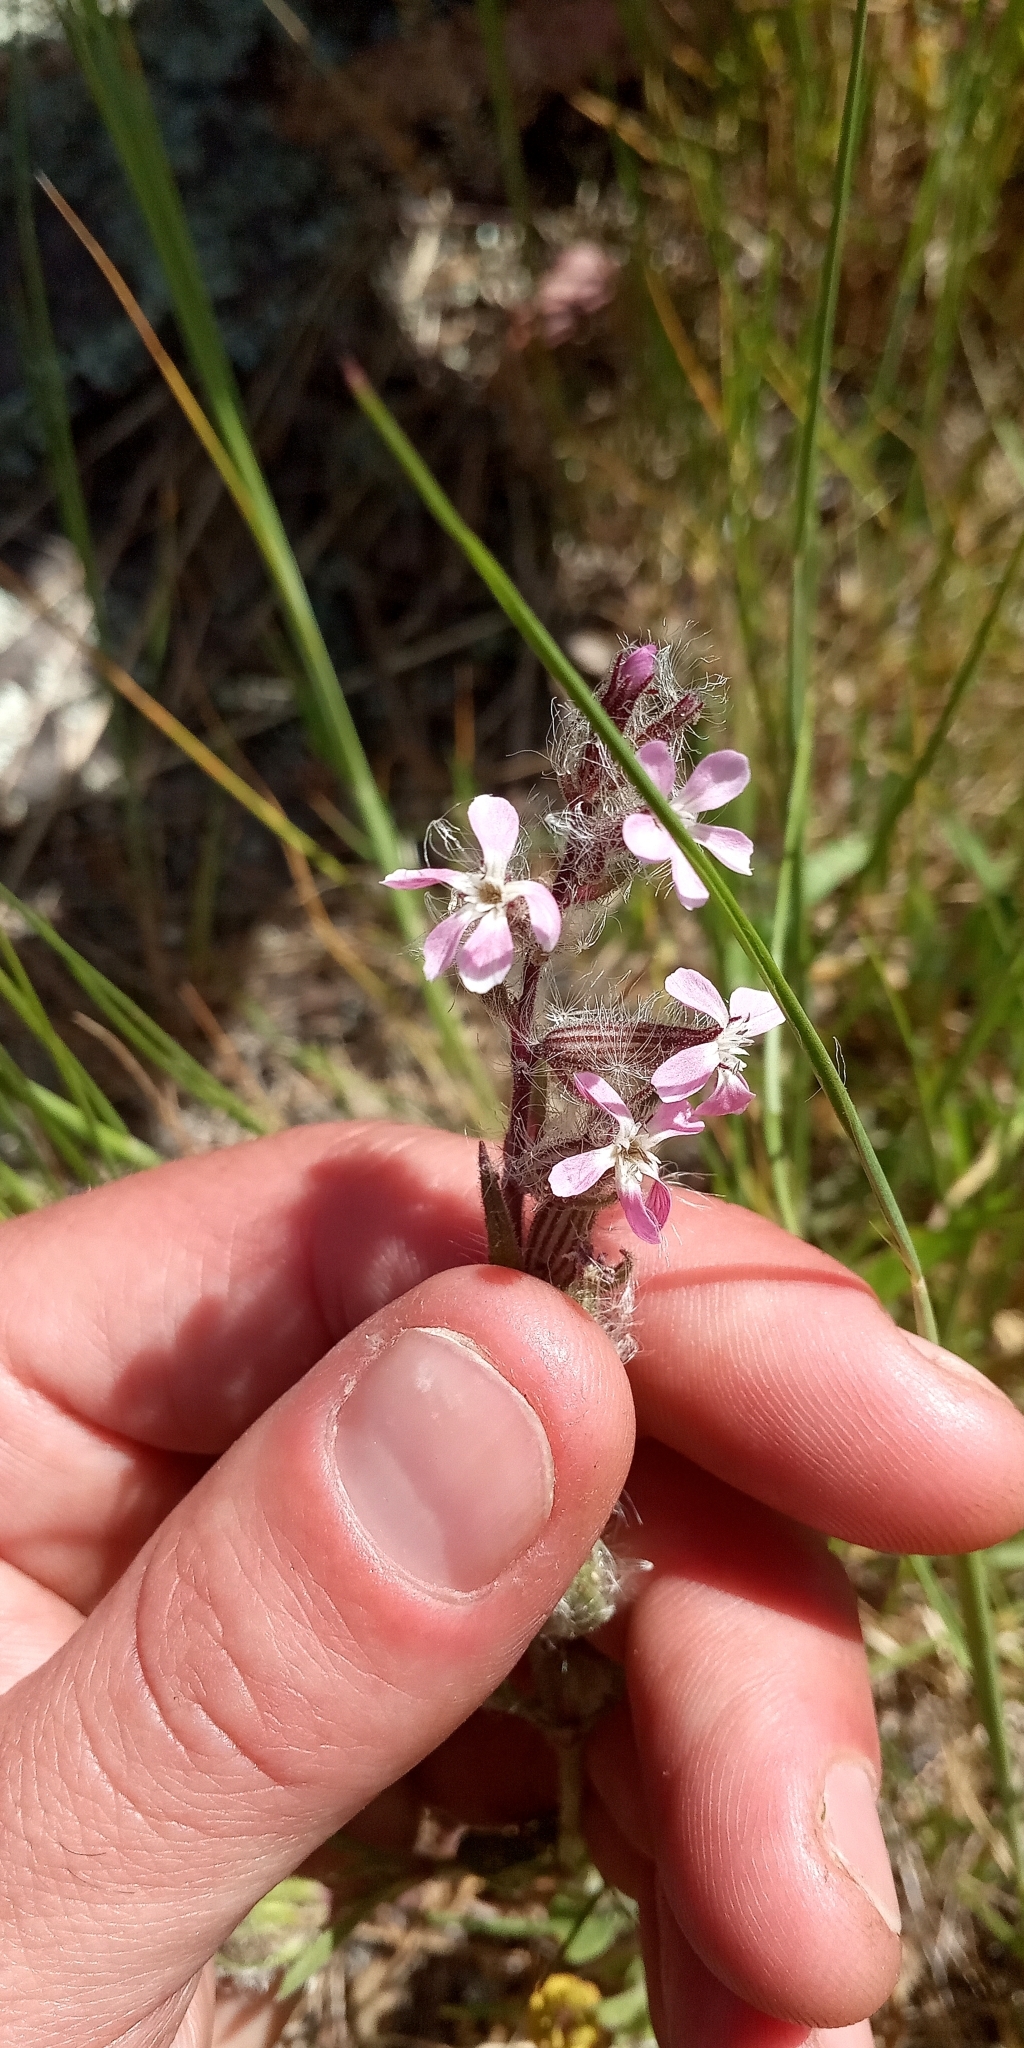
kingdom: Plantae
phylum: Tracheophyta
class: Magnoliopsida
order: Caryophyllales
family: Caryophyllaceae
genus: Silene
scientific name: Silene gallica
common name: Small-flowered catchfly
